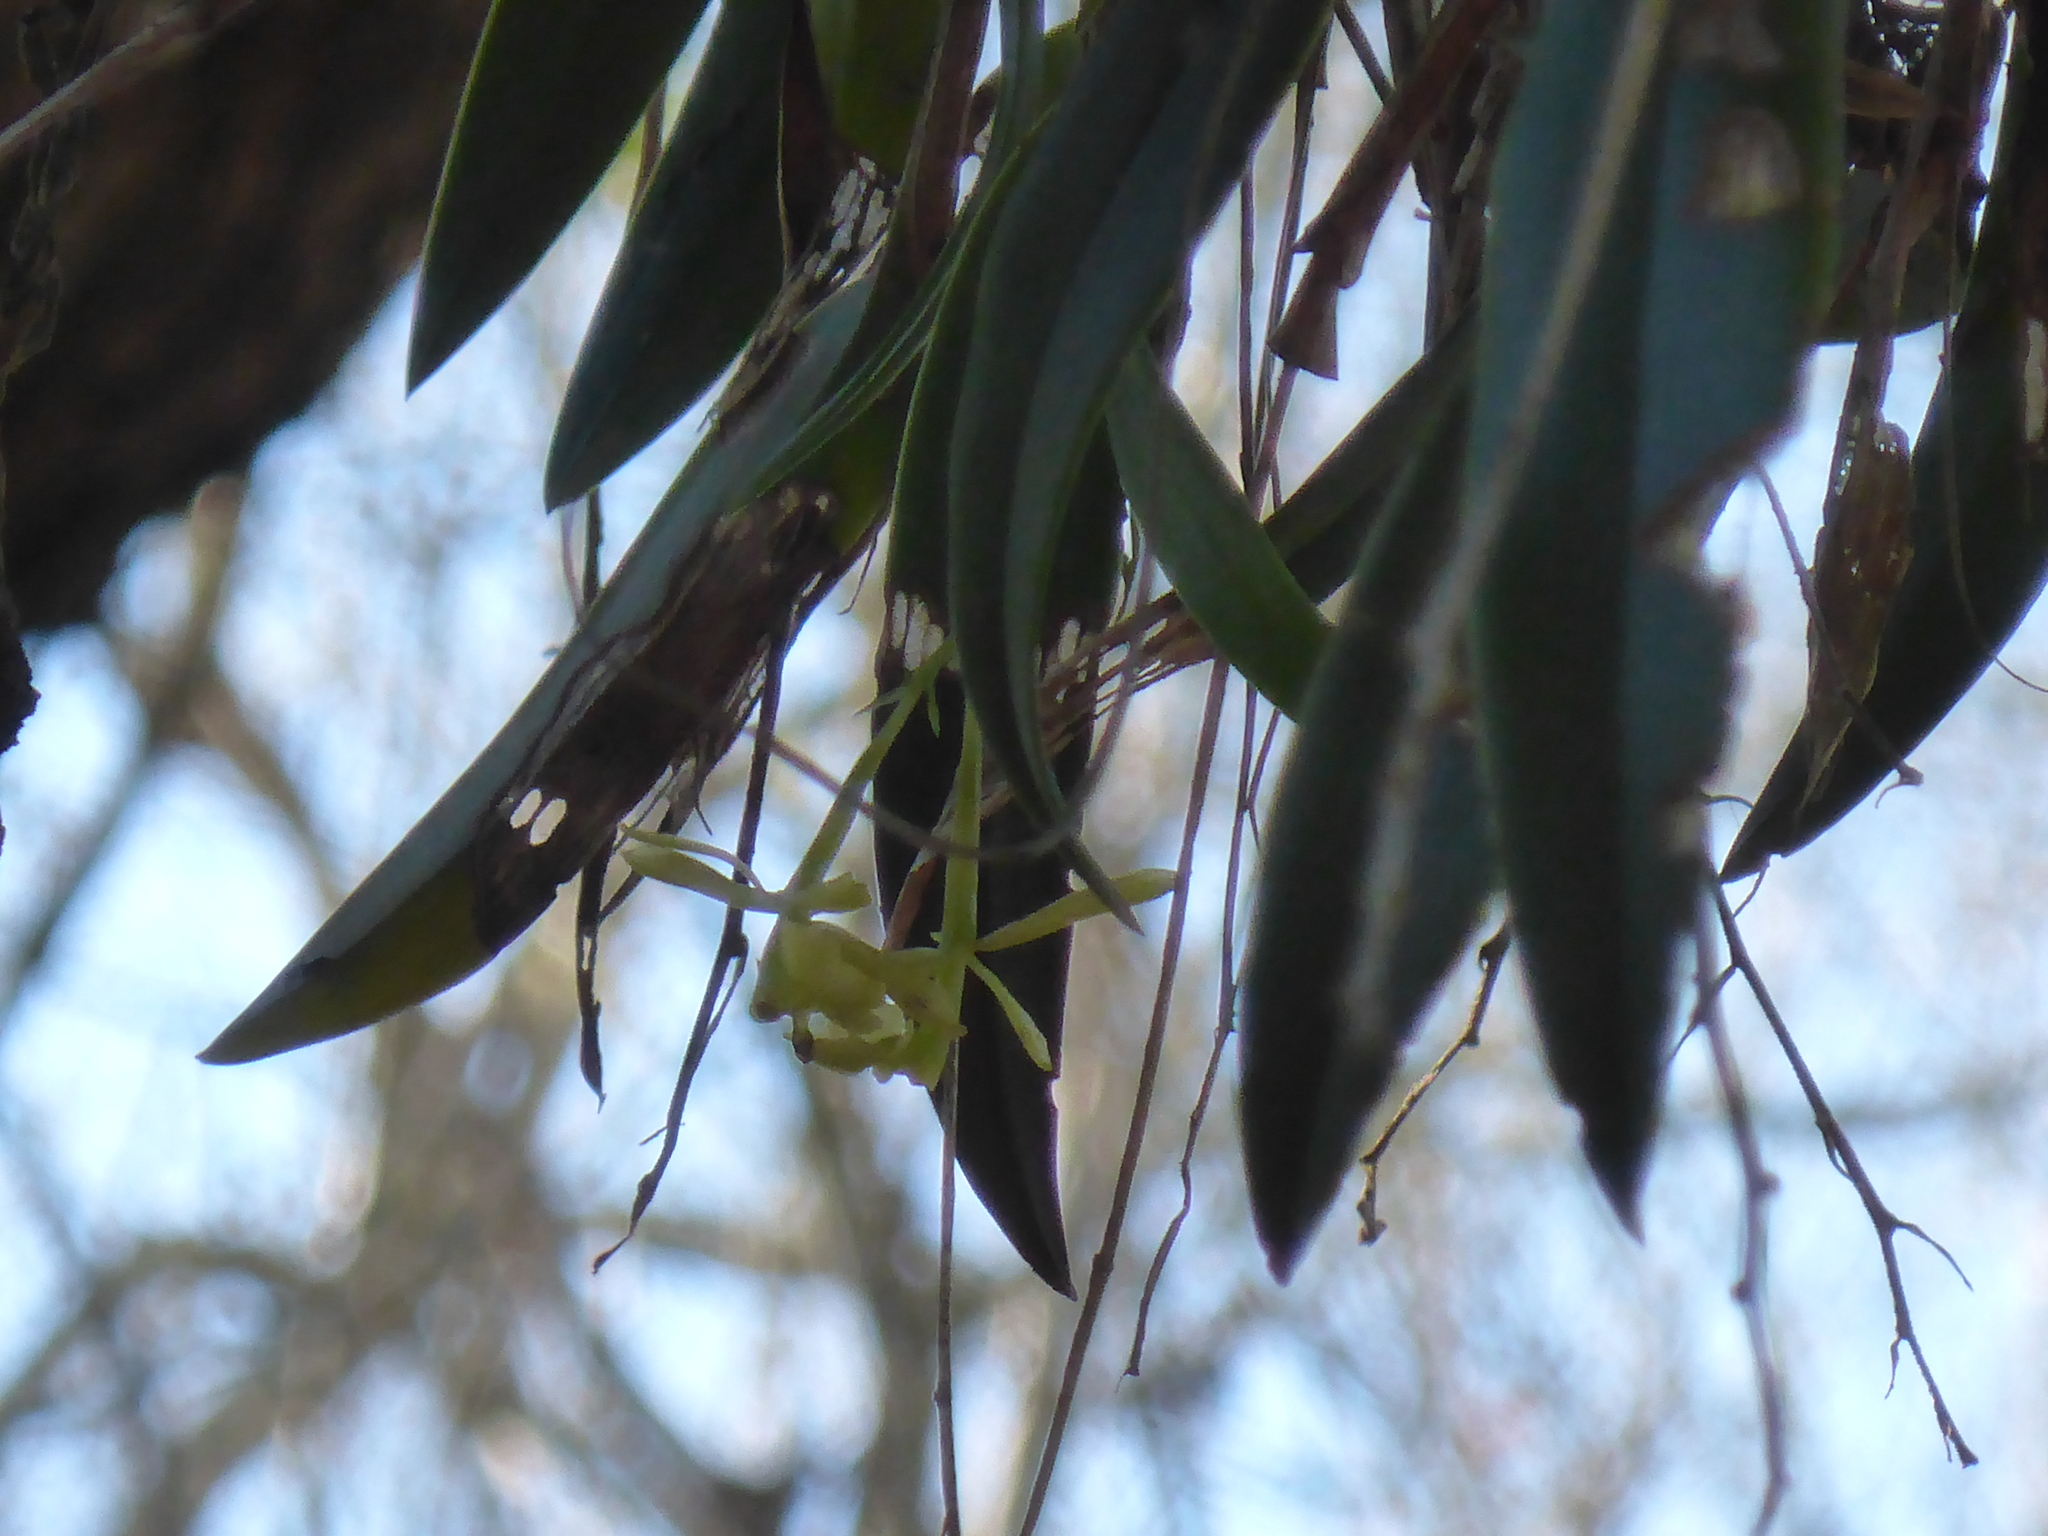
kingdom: Plantae
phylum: Tracheophyta
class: Liliopsida
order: Asparagales
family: Orchidaceae
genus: Epidendrum
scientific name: Epidendrum conopseum
